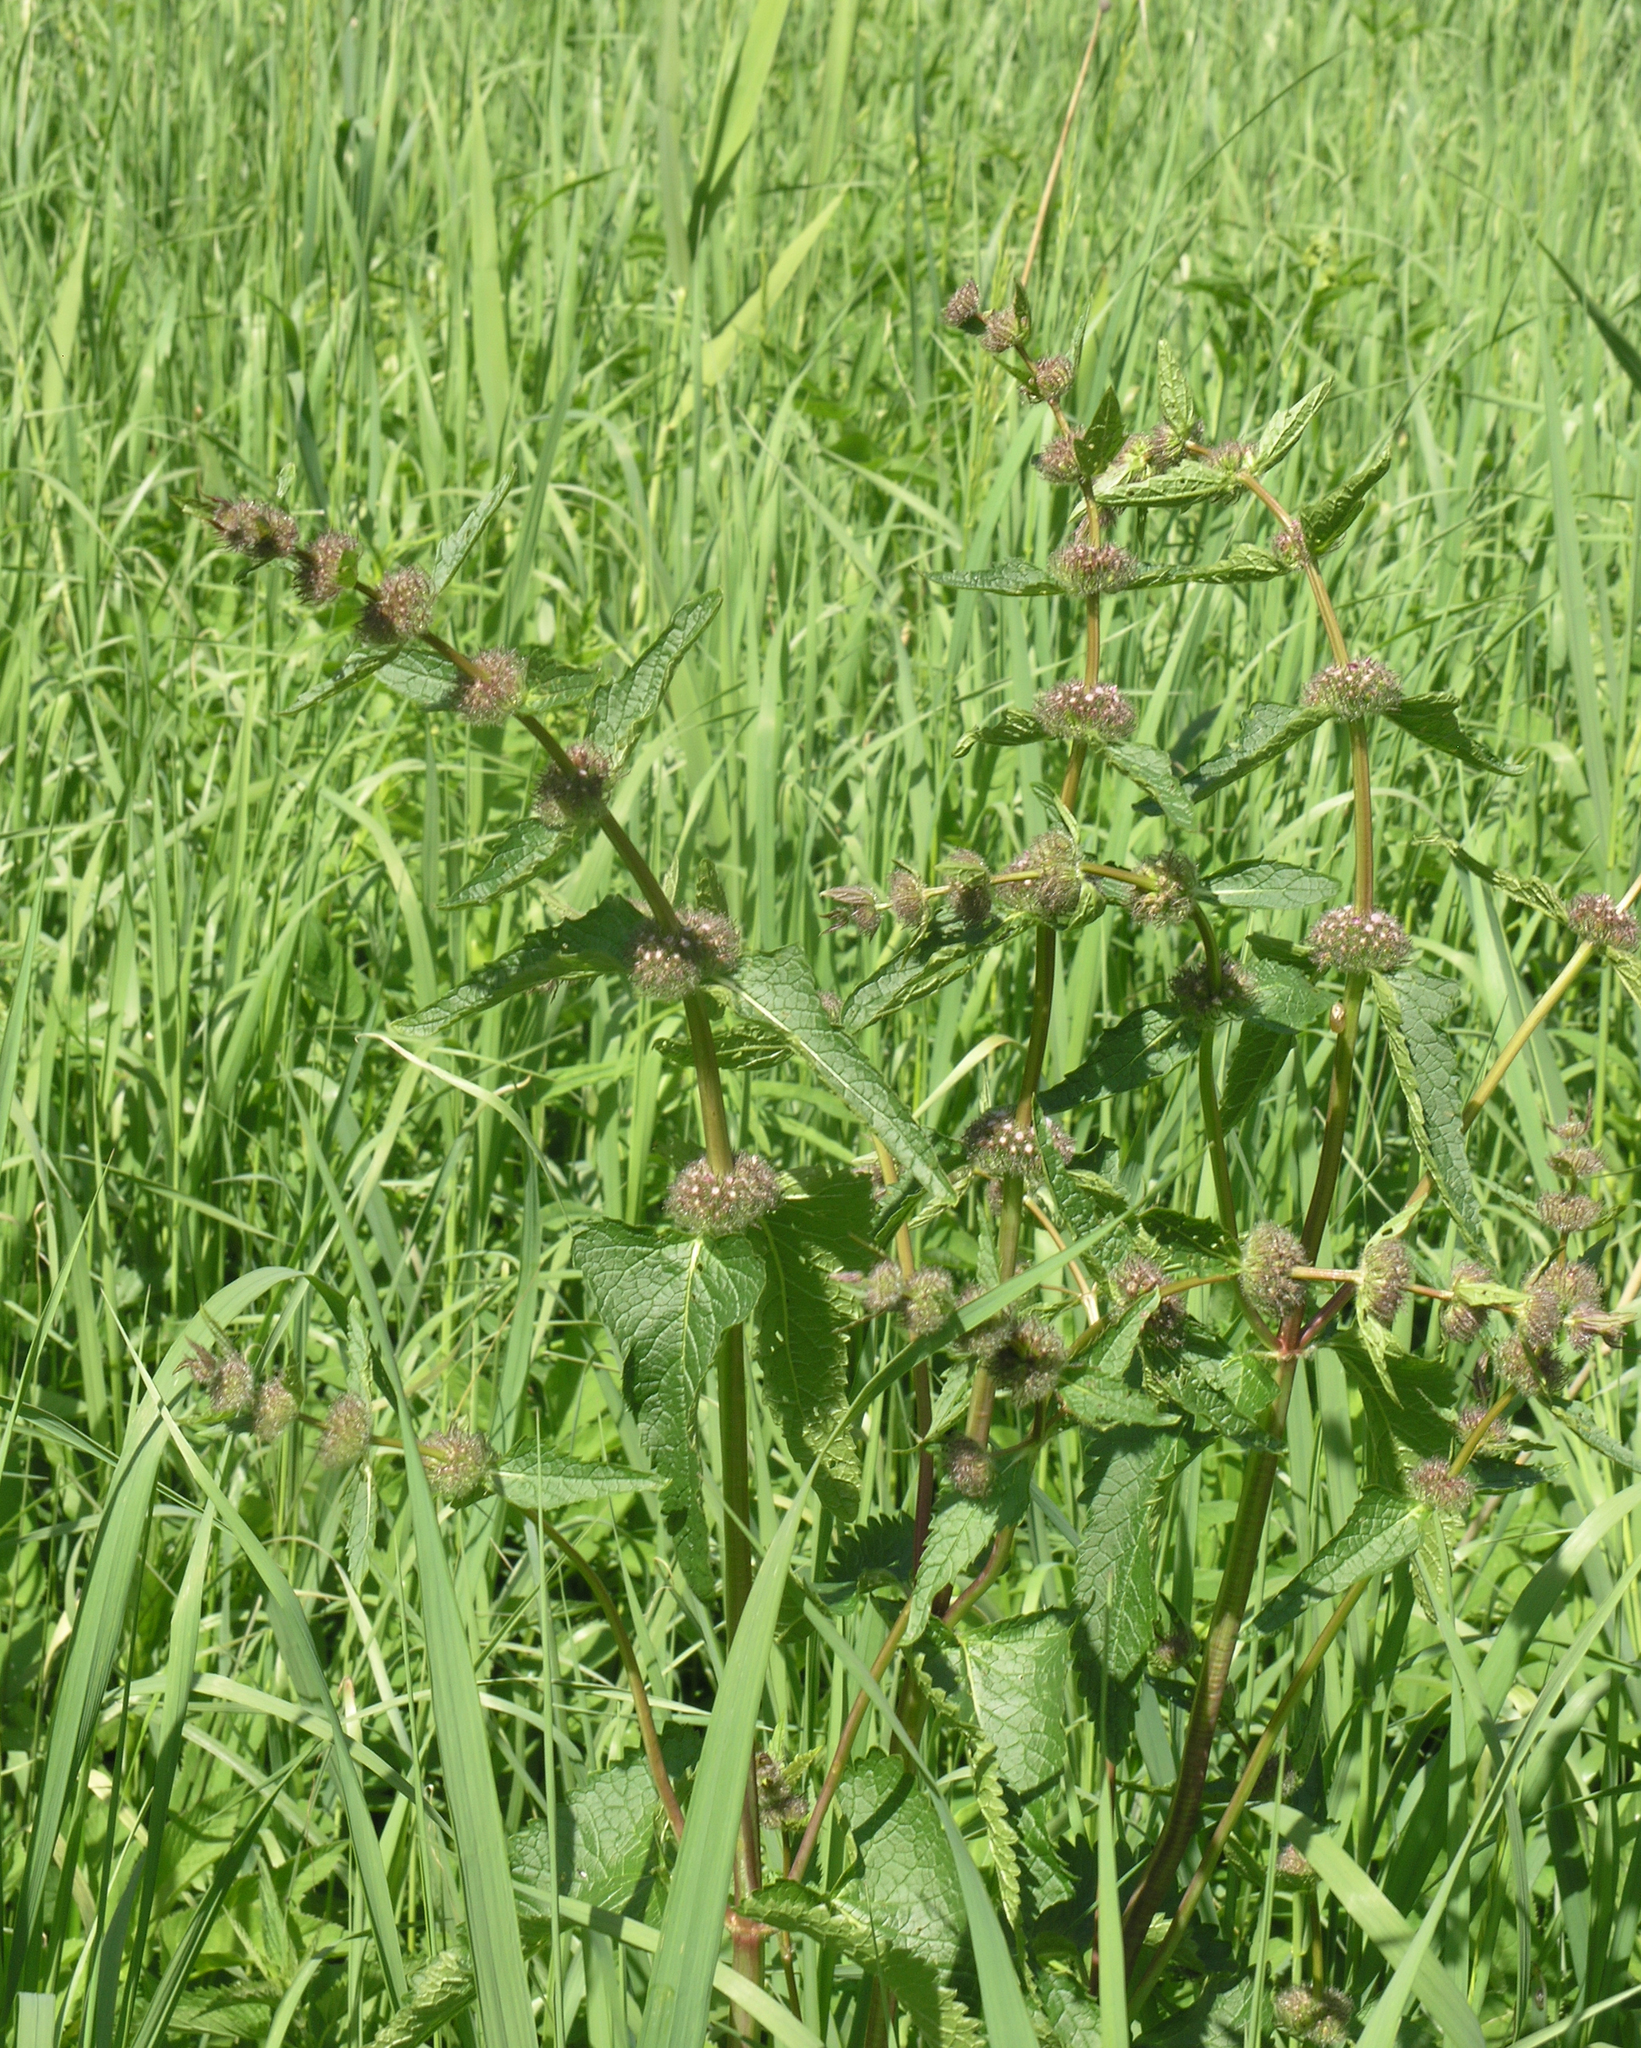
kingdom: Plantae
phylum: Tracheophyta
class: Magnoliopsida
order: Lamiales
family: Lamiaceae
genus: Phlomoides
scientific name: Phlomoides tuberosa
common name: Tuberous jerusalem sage
